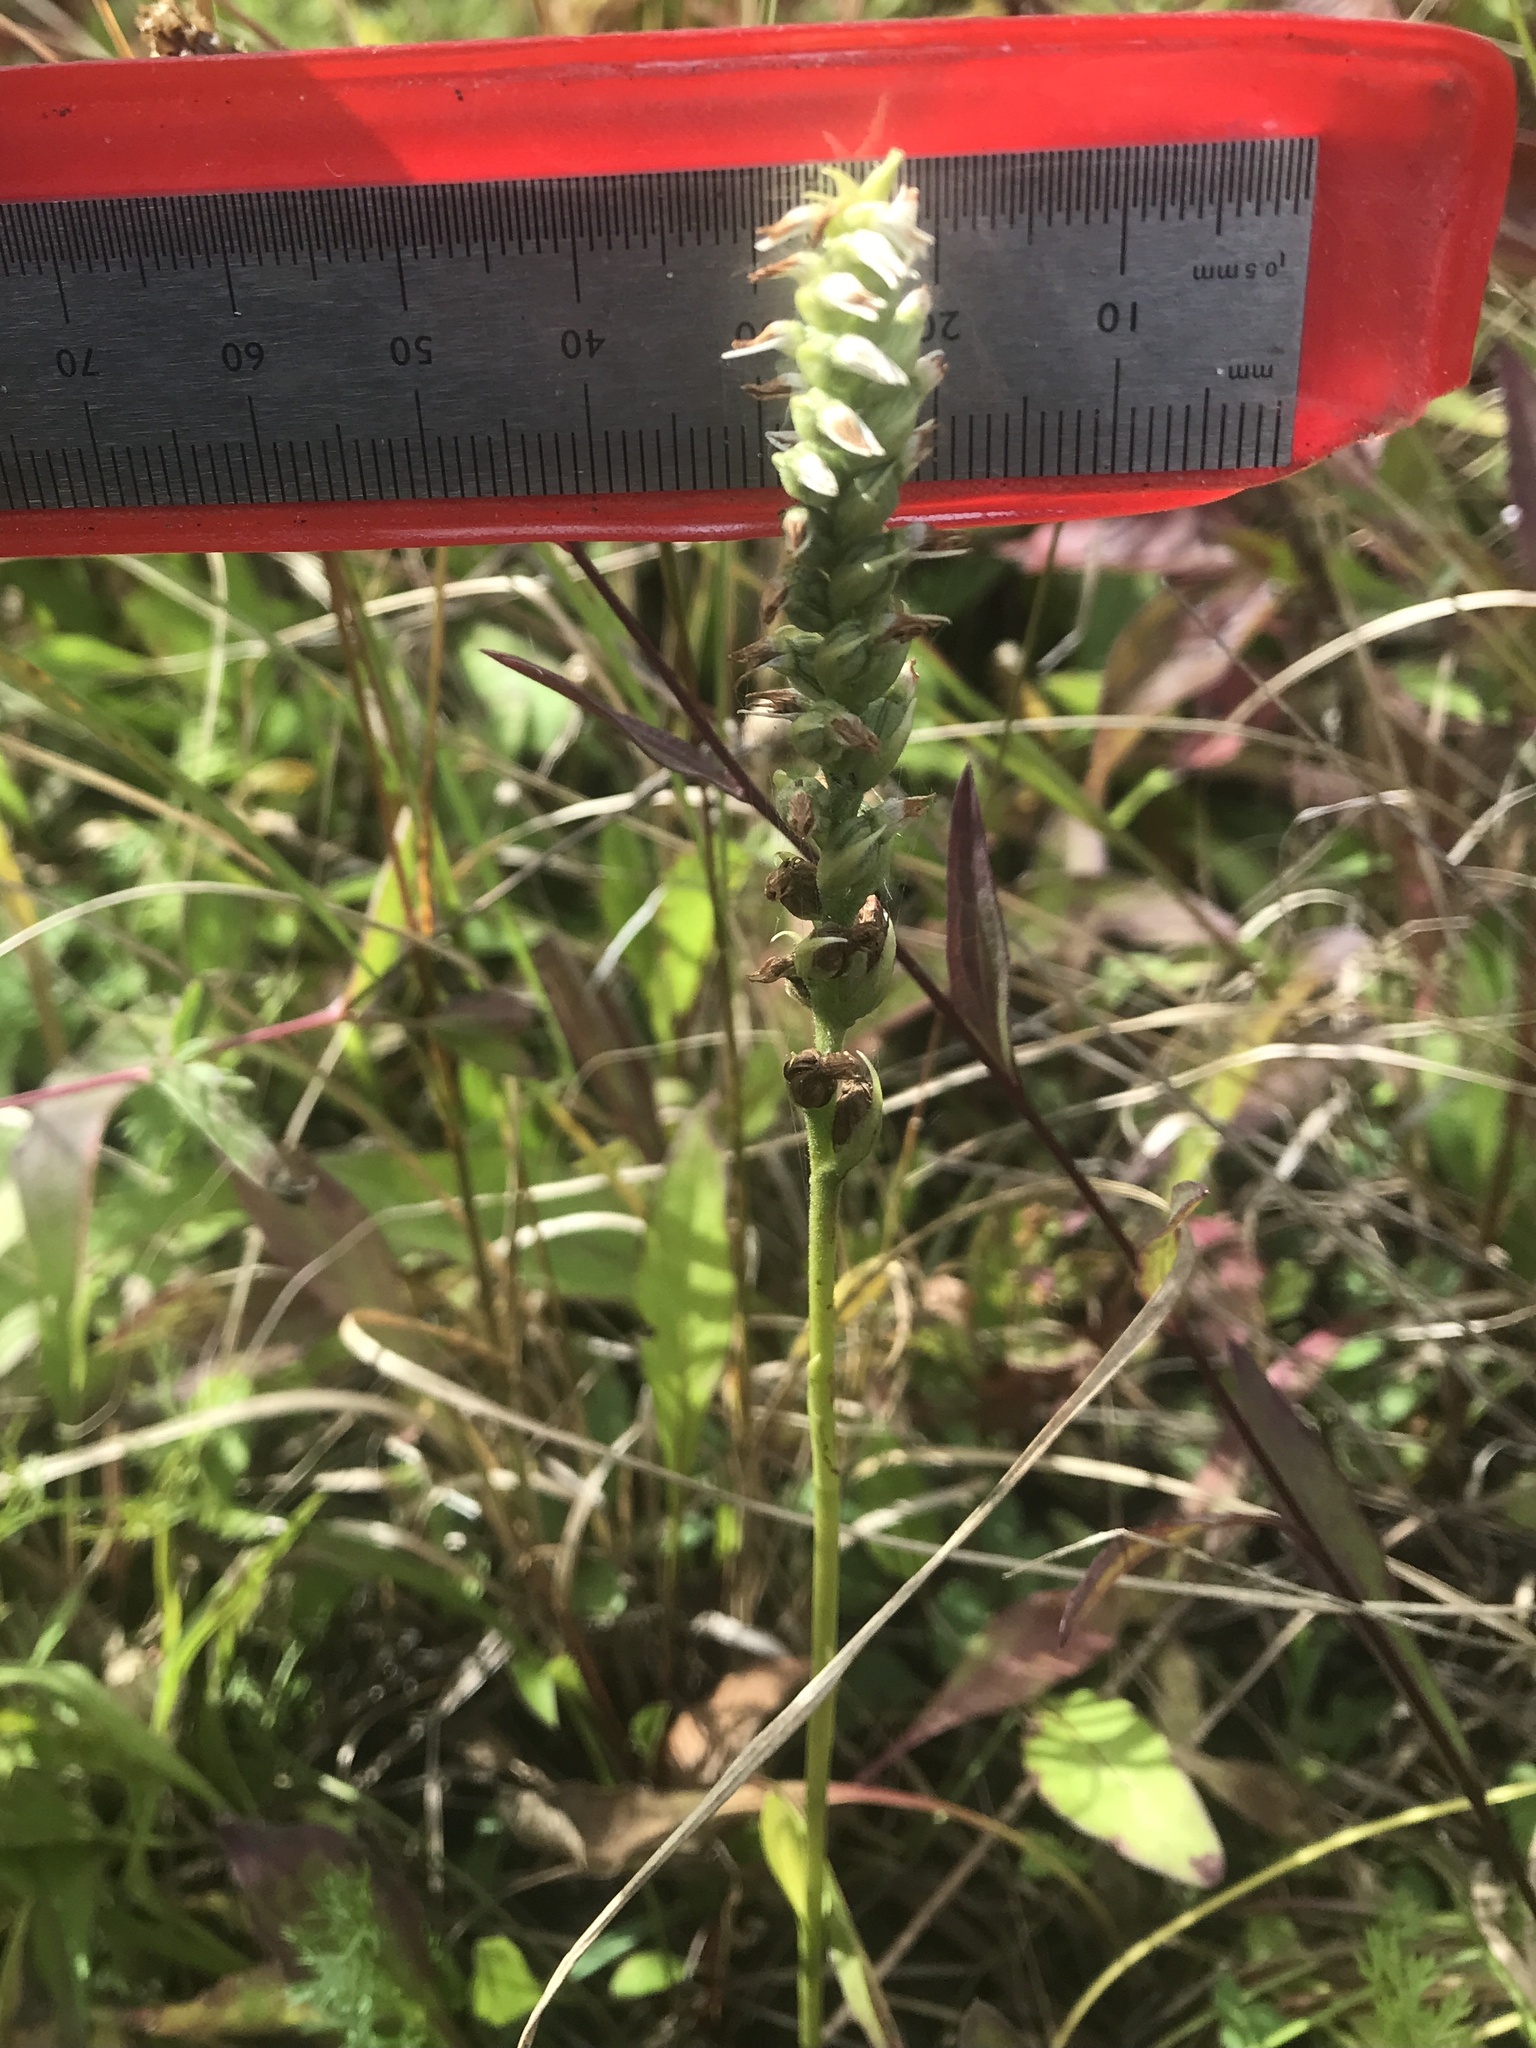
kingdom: Plantae
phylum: Tracheophyta
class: Liliopsida
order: Asparagales
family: Orchidaceae
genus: Spiranthes
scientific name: Spiranthes ovalis
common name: October ladies'-tresses
